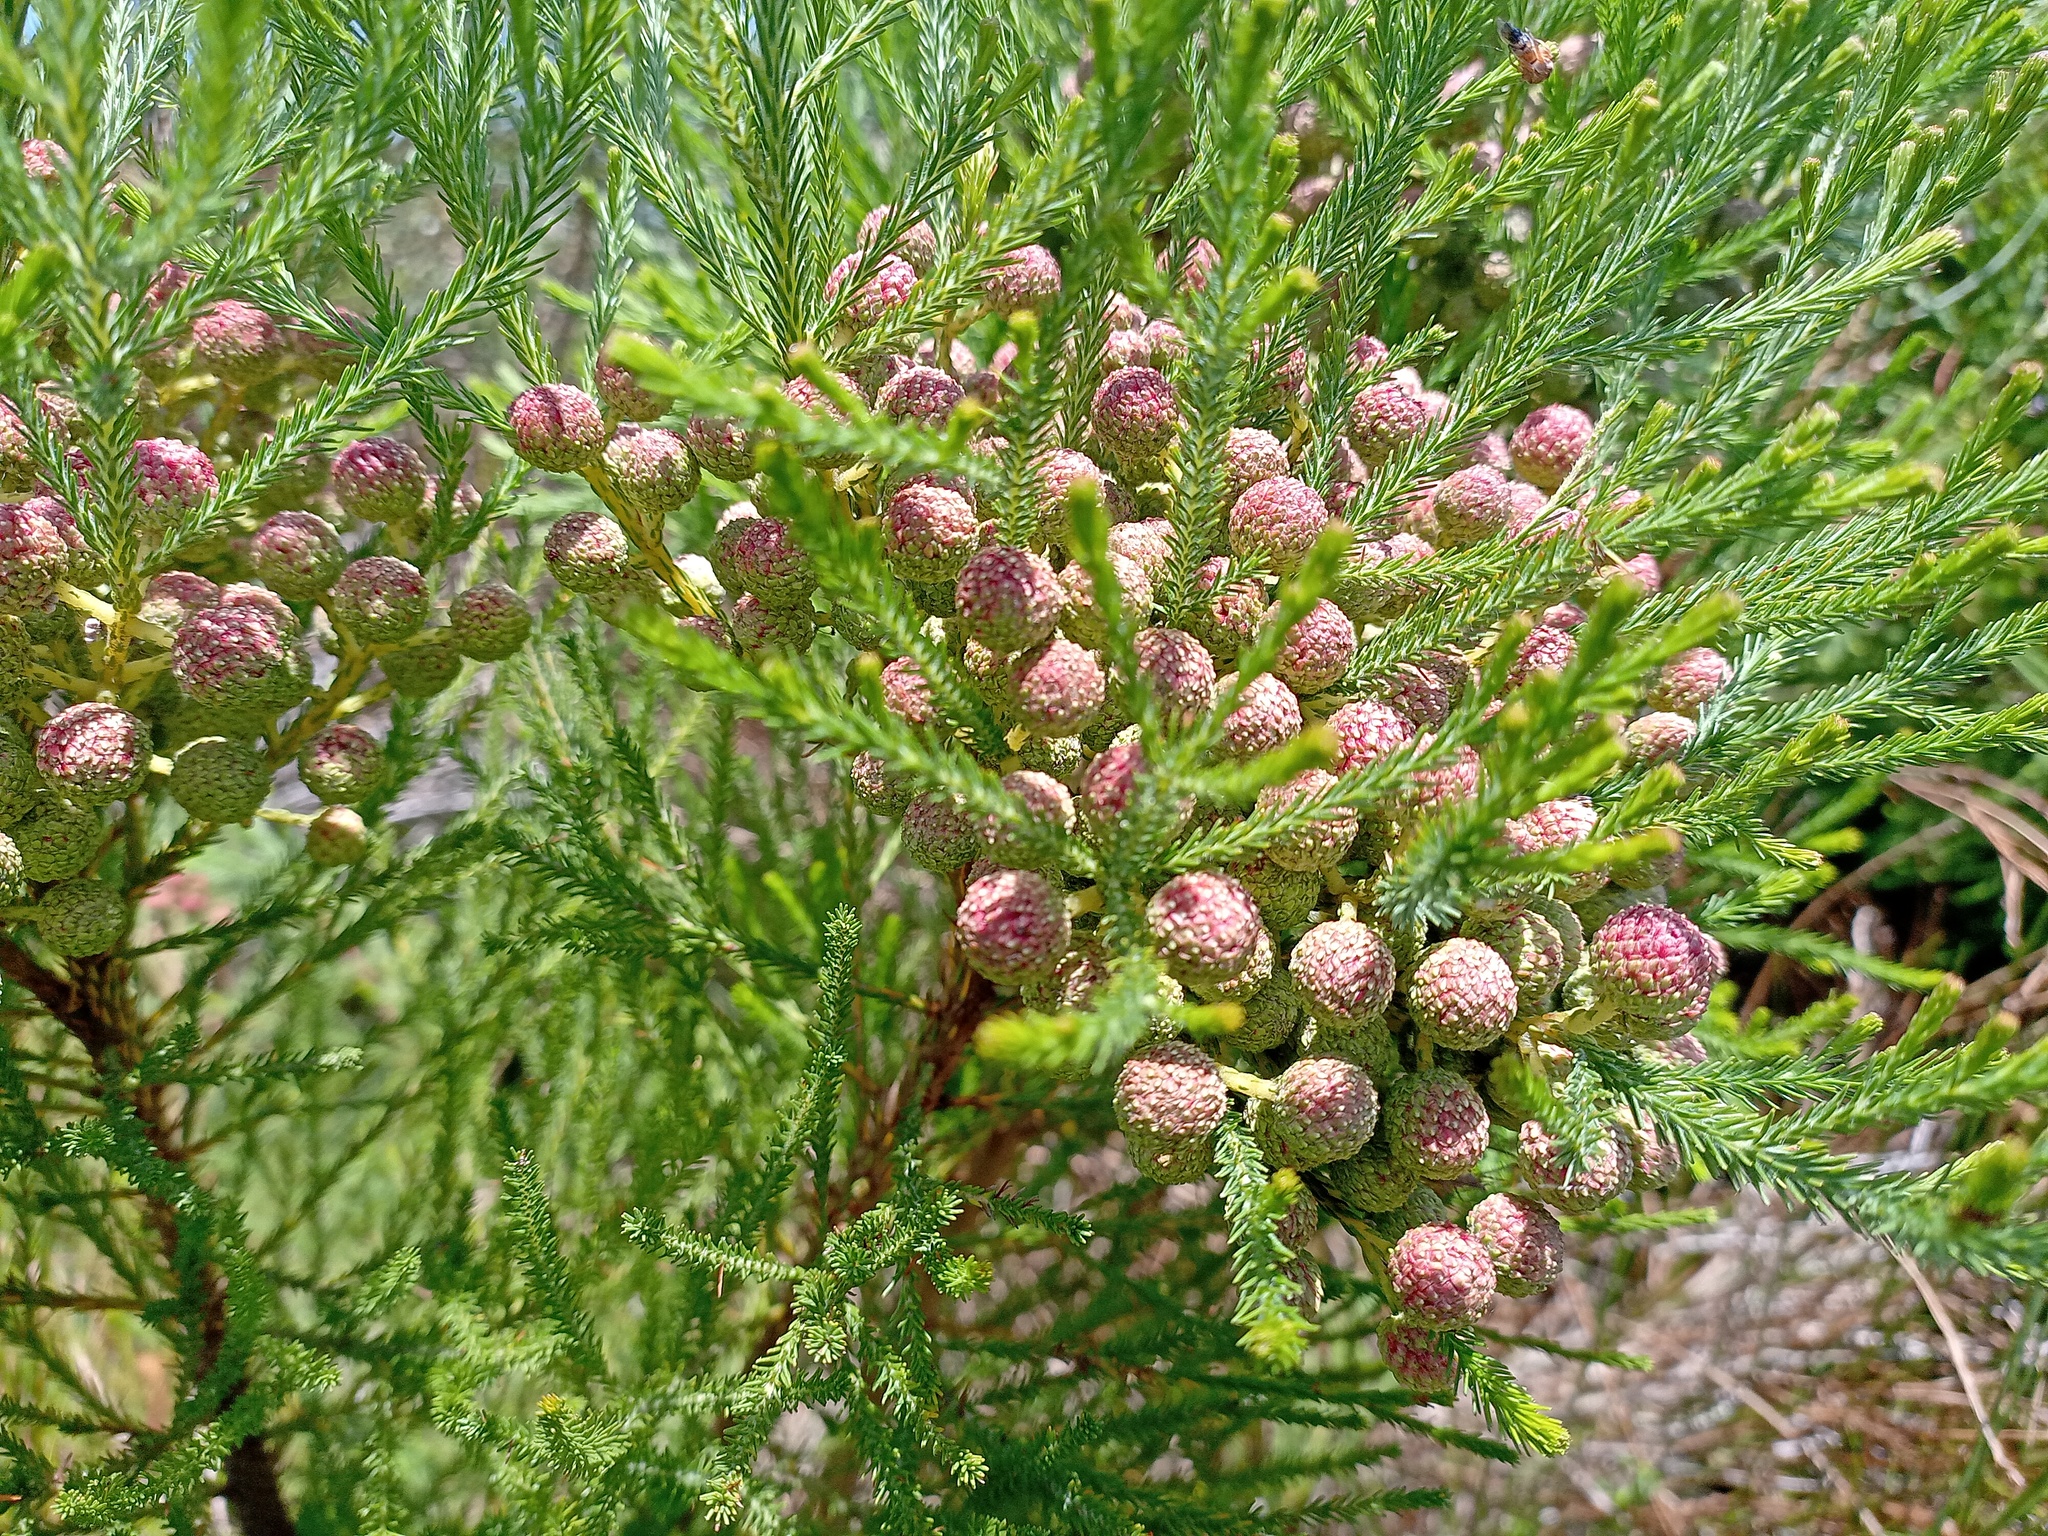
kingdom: Plantae
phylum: Tracheophyta
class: Magnoliopsida
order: Bruniales
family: Bruniaceae
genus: Berzelia
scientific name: Berzelia lanuginosa
